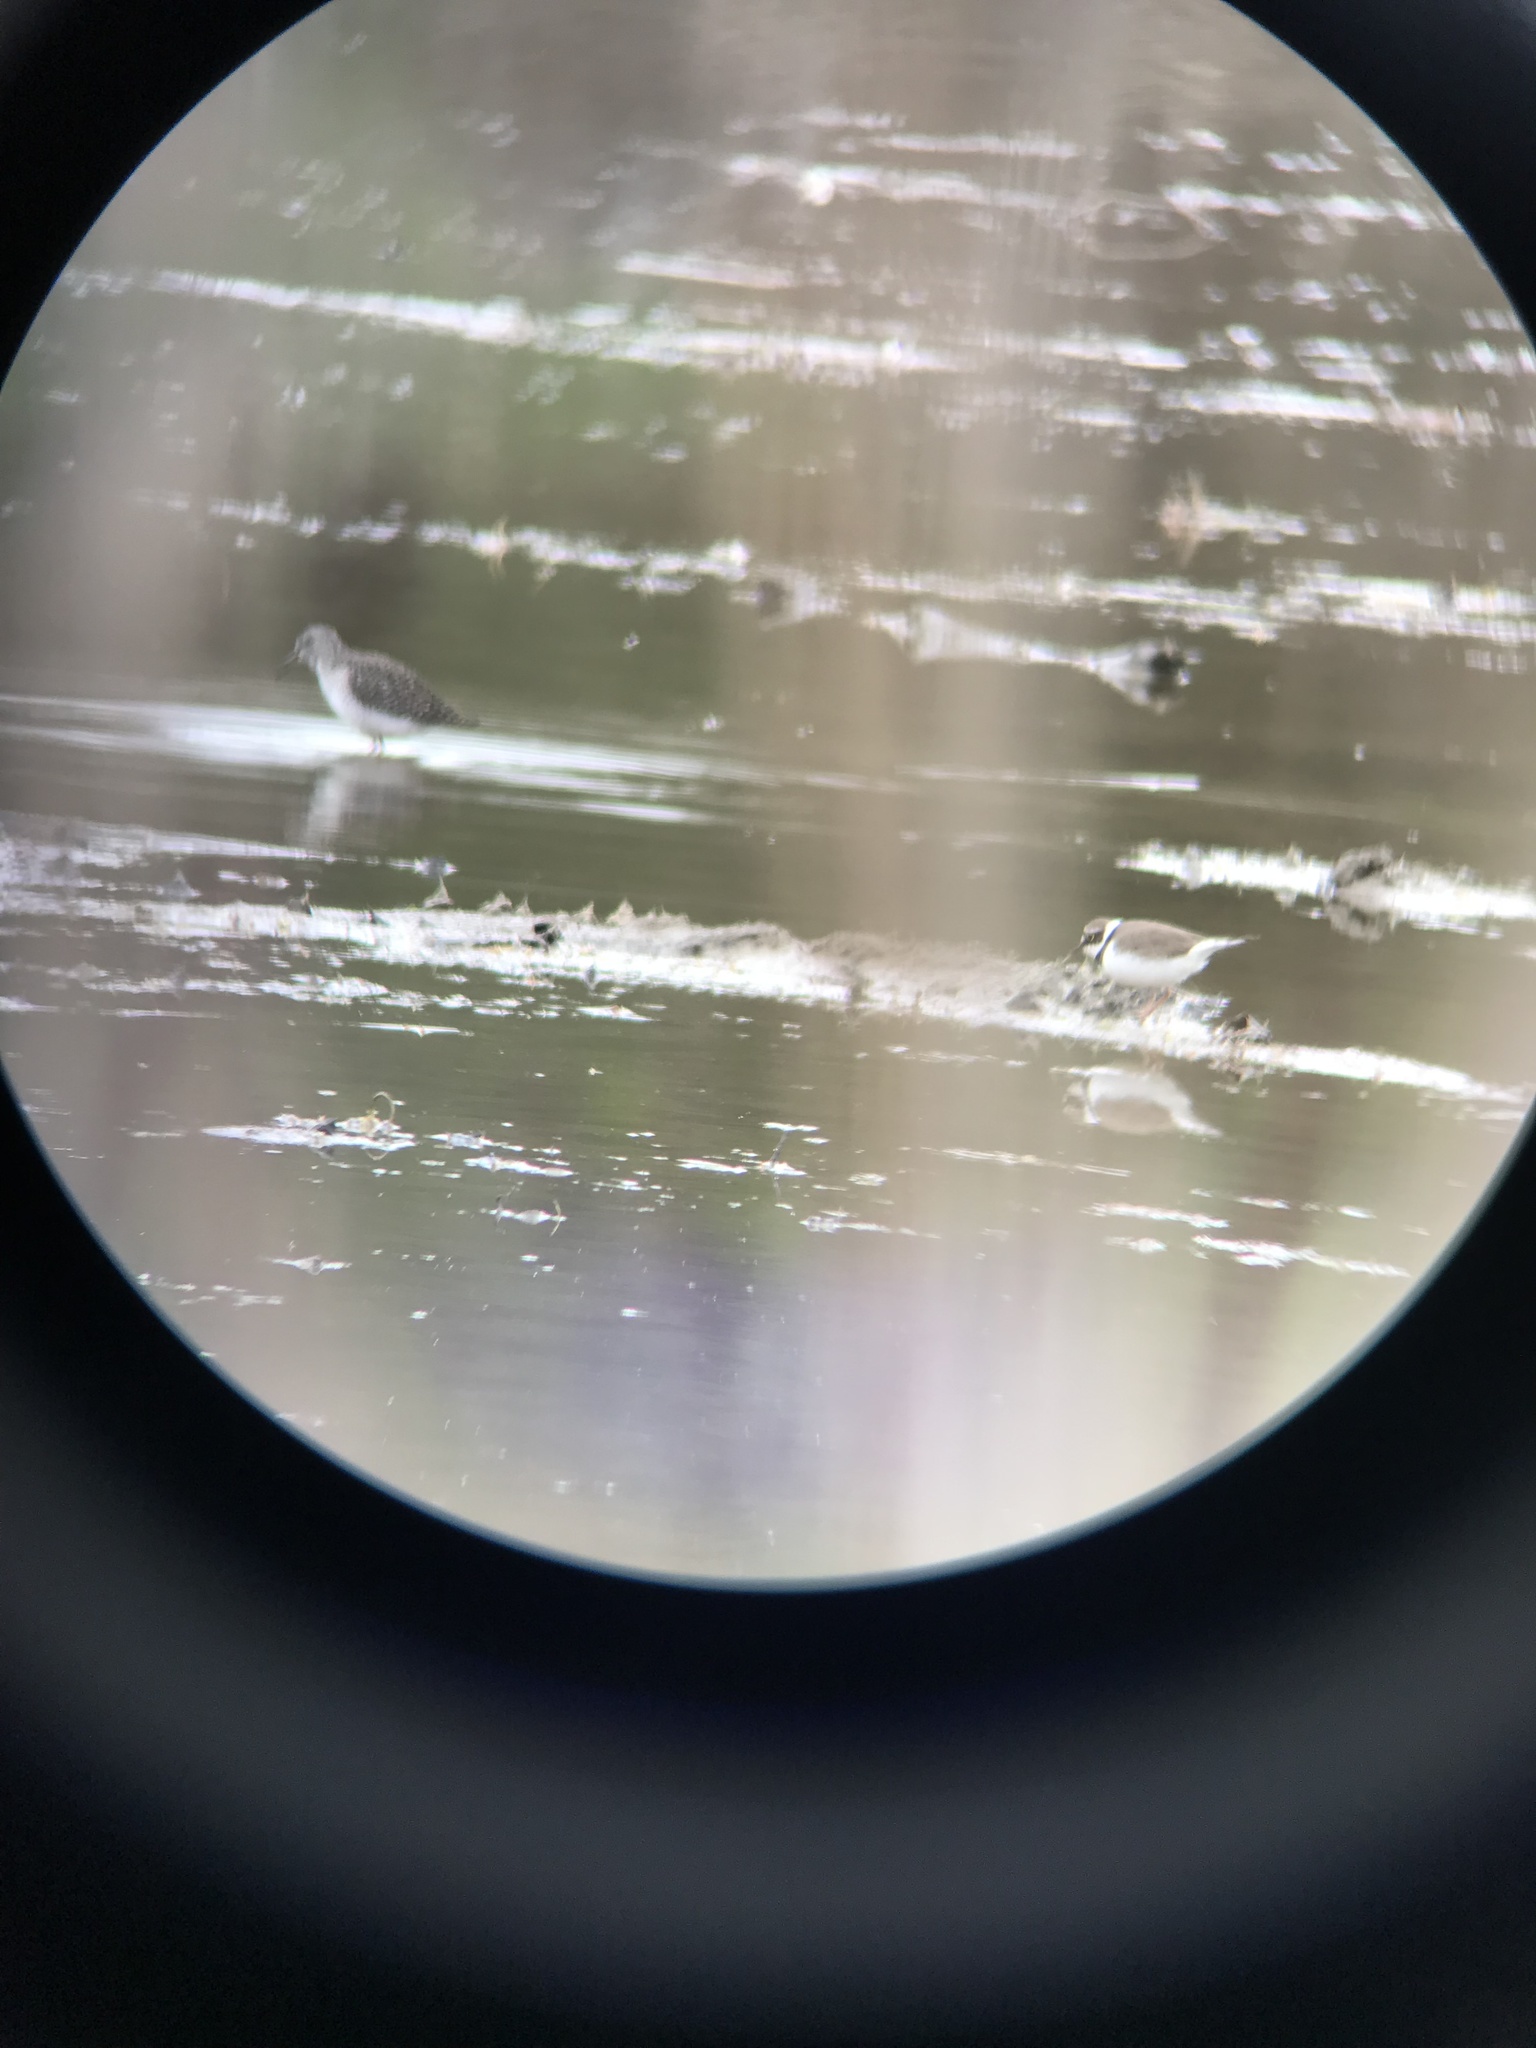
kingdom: Animalia
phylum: Chordata
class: Aves
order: Charadriiformes
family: Charadriidae
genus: Charadrius
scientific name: Charadrius dubius
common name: Little ringed plover
